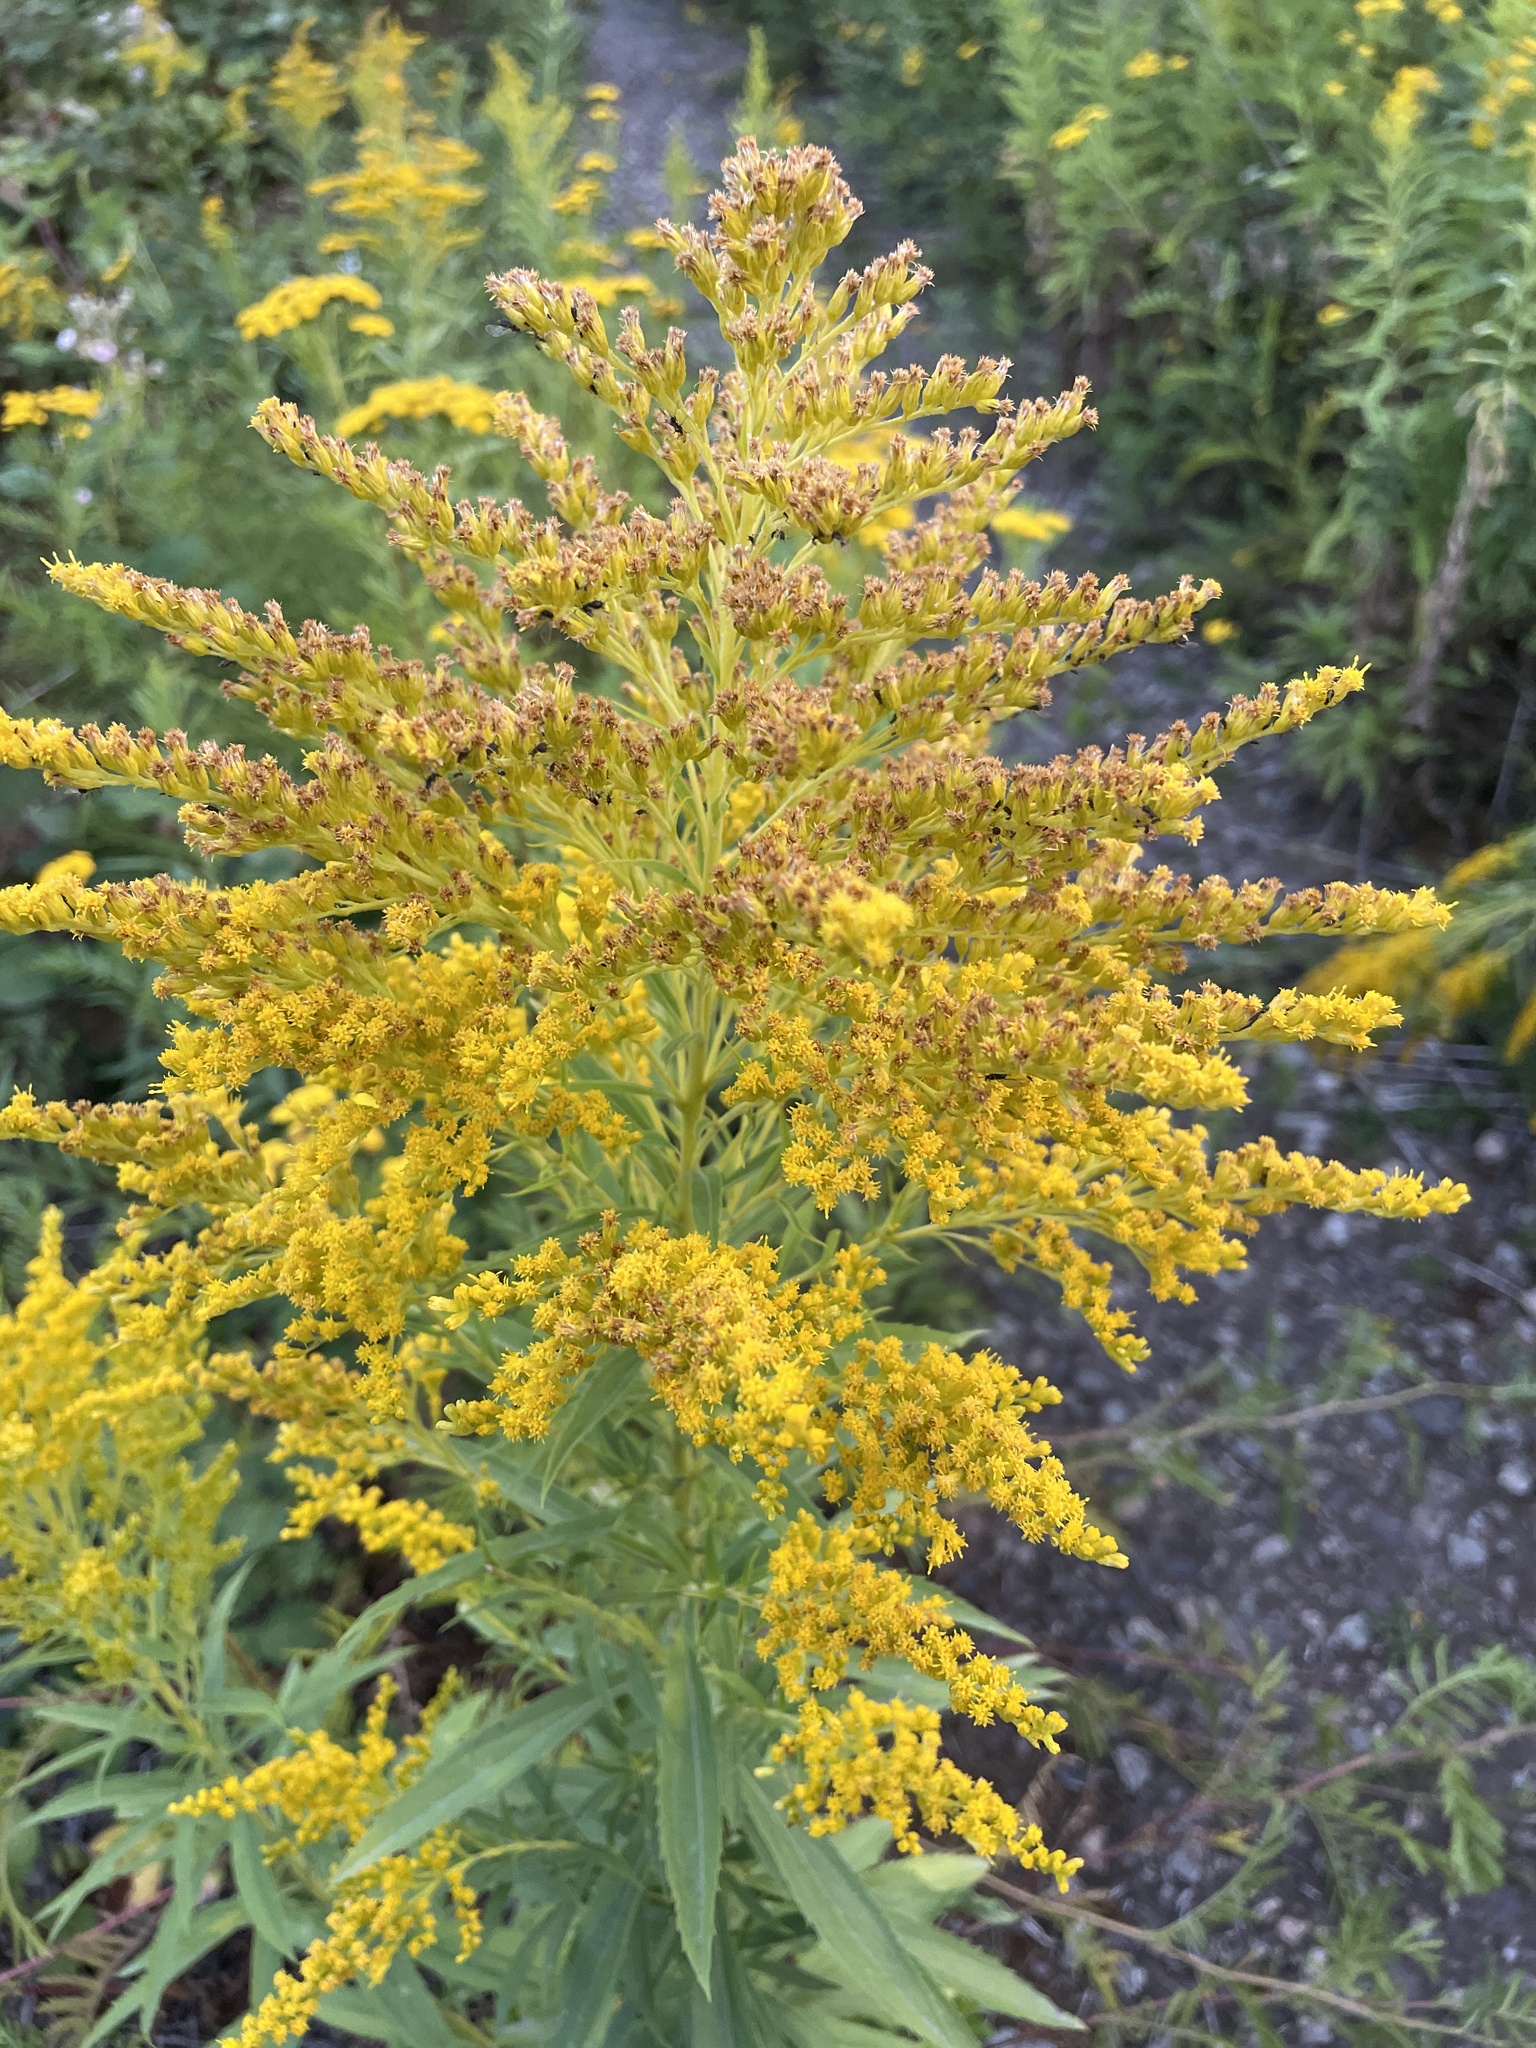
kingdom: Plantae
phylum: Tracheophyta
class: Magnoliopsida
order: Asterales
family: Asteraceae
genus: Solidago
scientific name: Solidago lepida
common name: Western canada goldenrod
